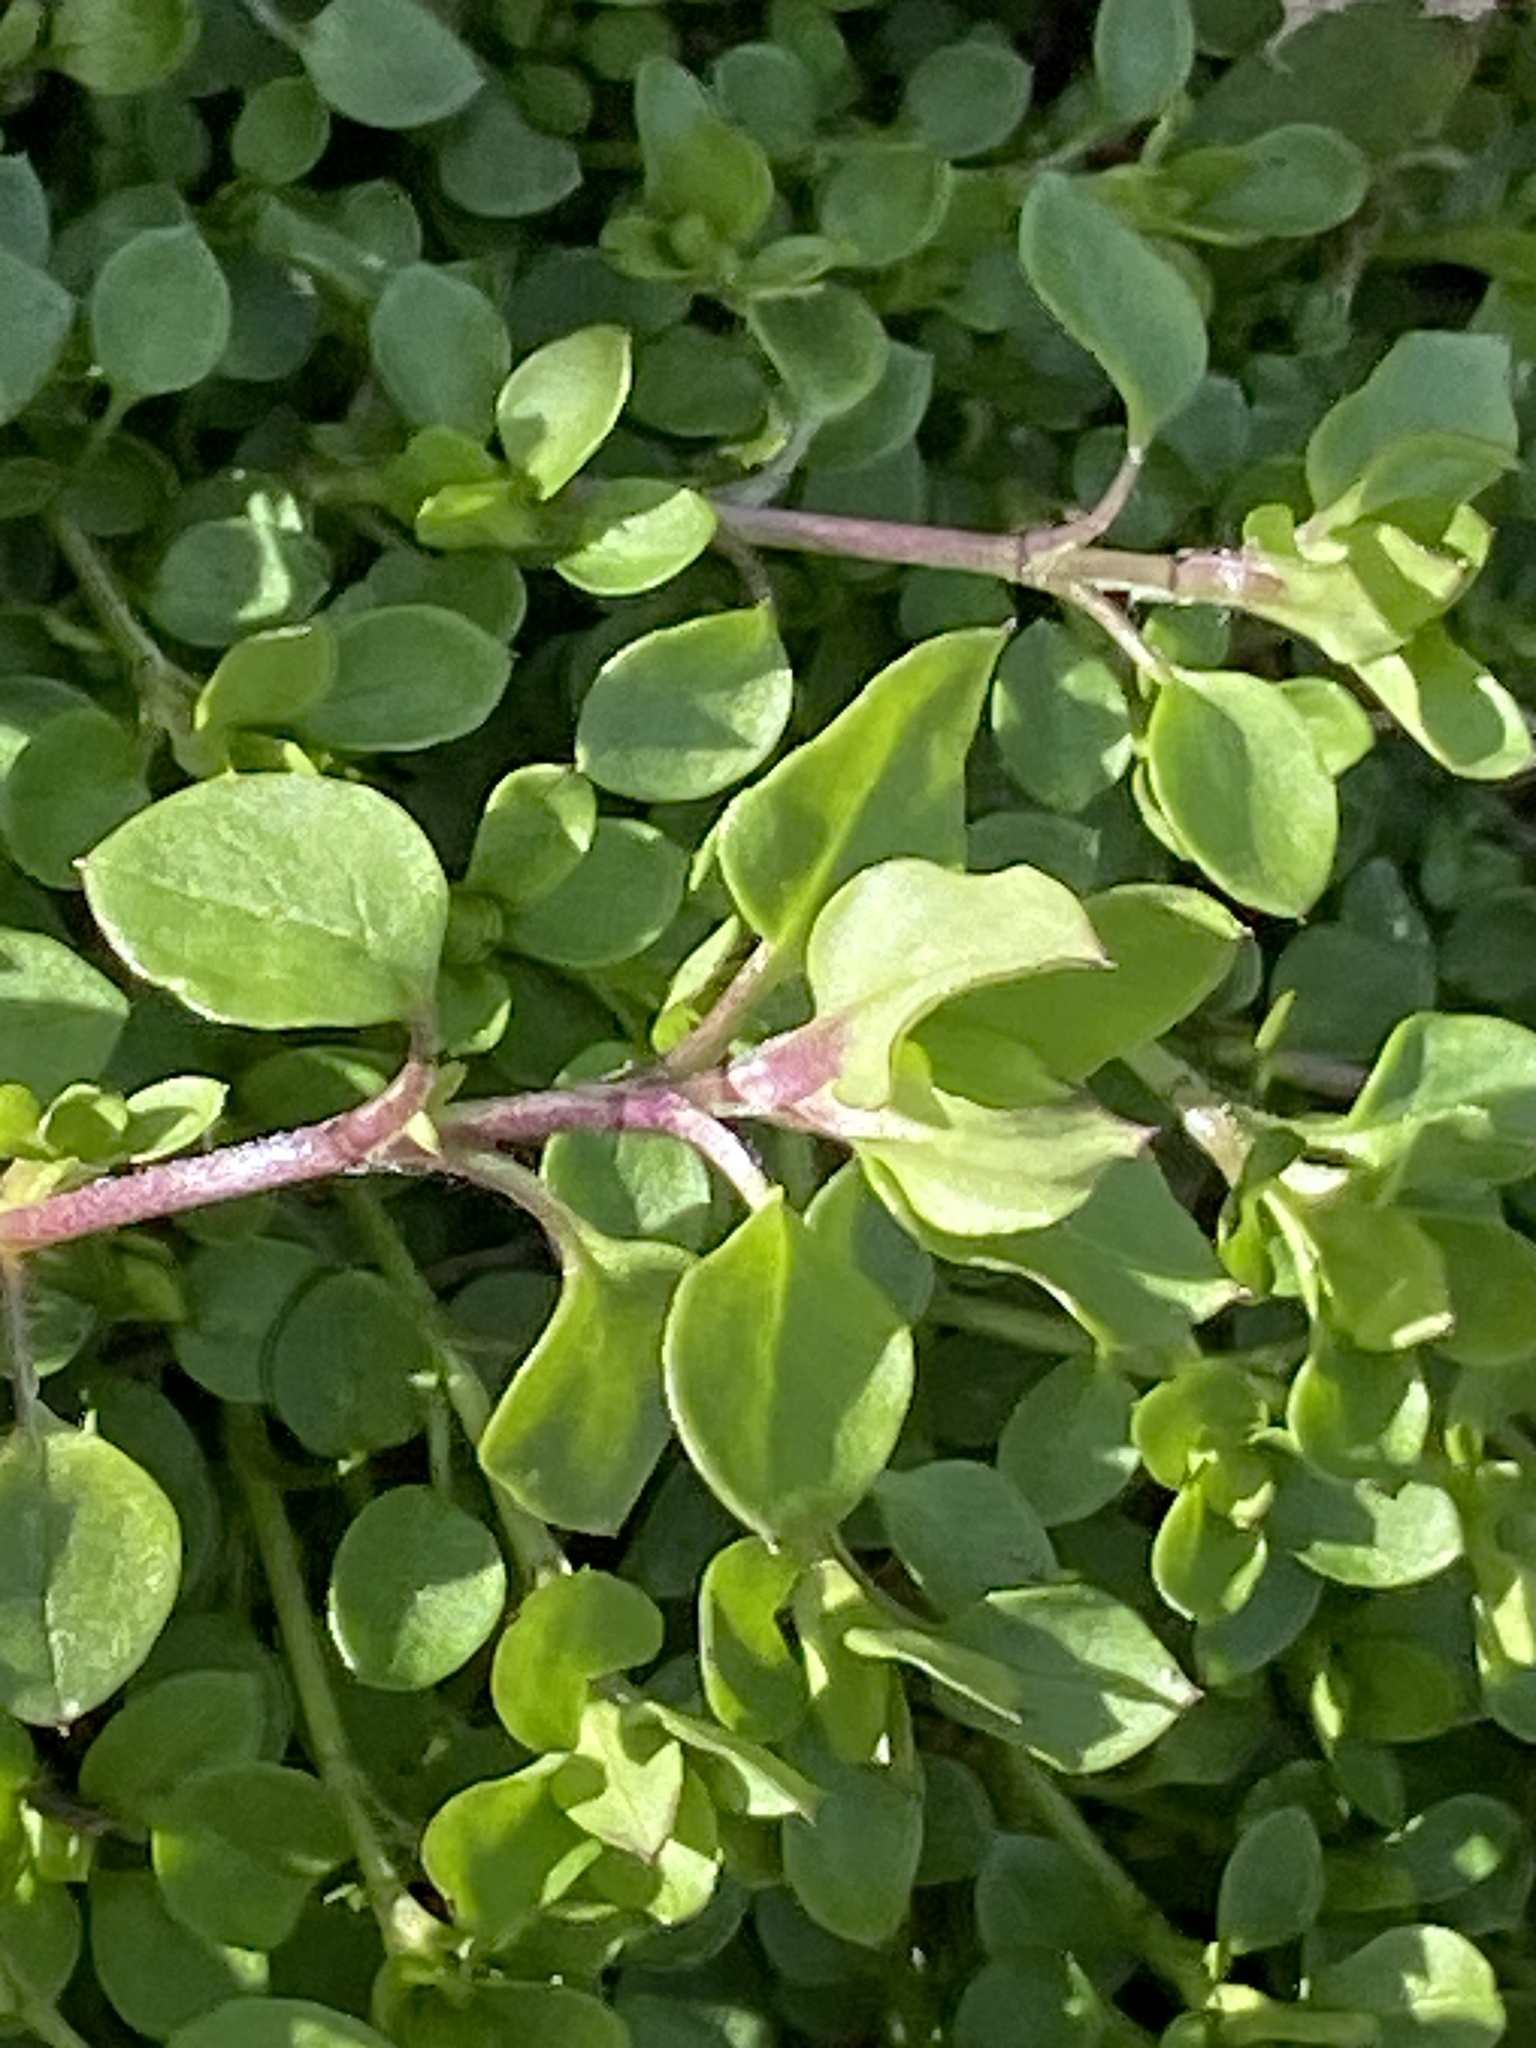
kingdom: Plantae
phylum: Tracheophyta
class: Magnoliopsida
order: Caryophyllales
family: Caryophyllaceae
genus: Stellaria
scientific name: Stellaria media
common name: Common chickweed
